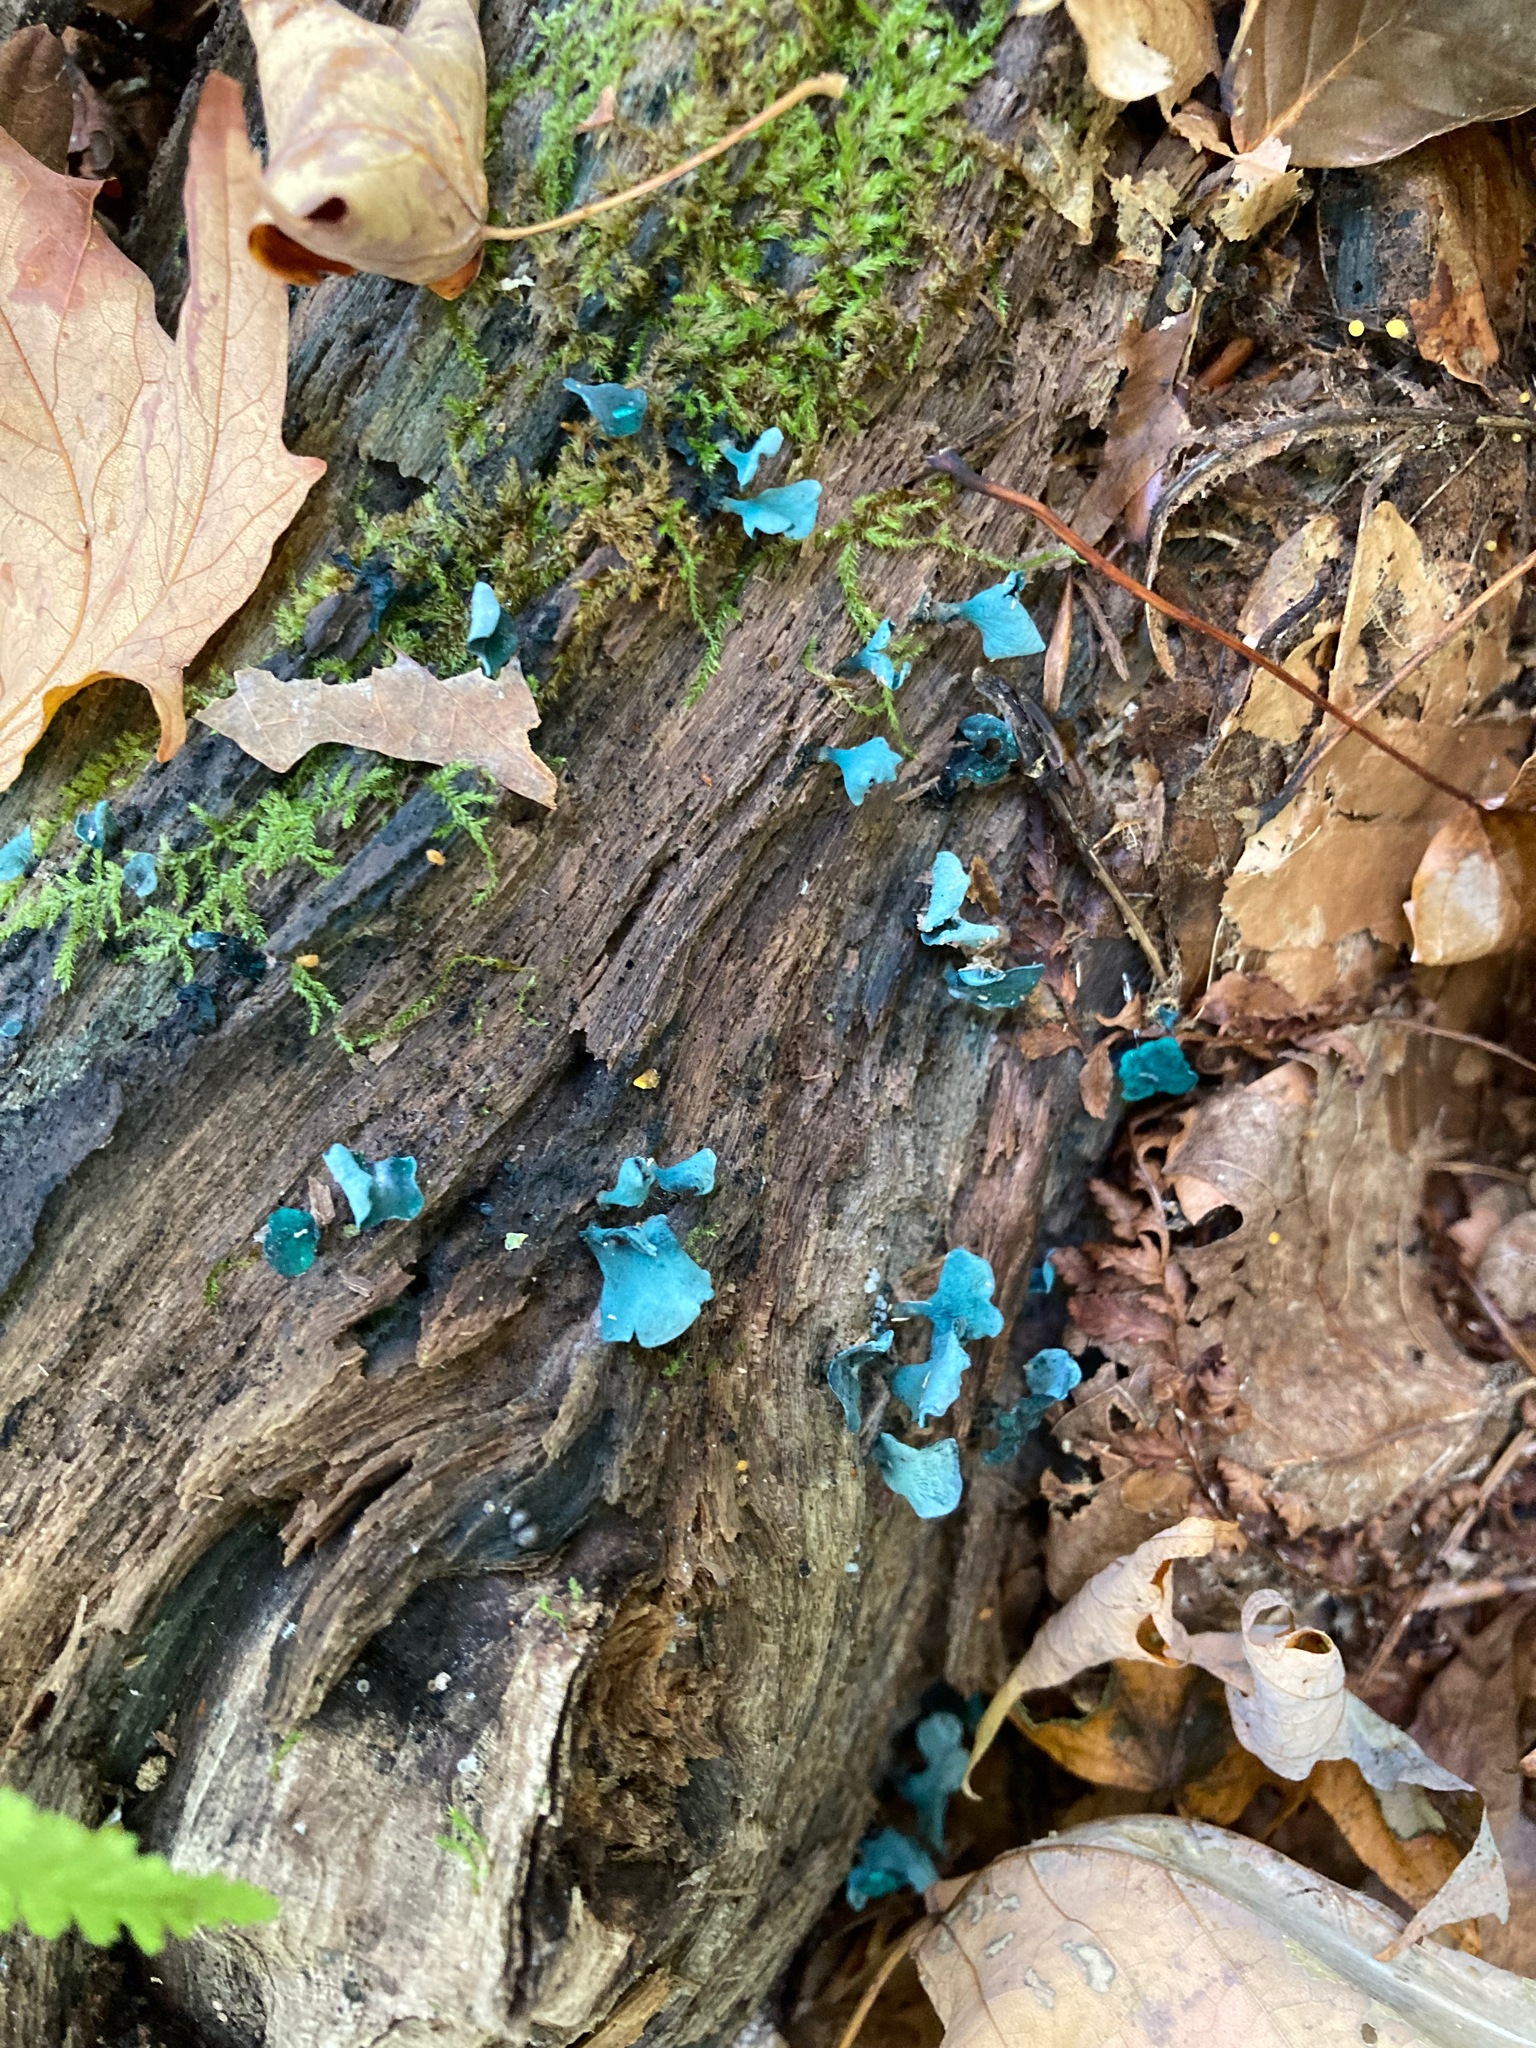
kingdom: Fungi
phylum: Ascomycota
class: Leotiomycetes
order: Helotiales
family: Chlorociboriaceae
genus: Chlorociboria
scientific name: Chlorociboria aeruginascens
